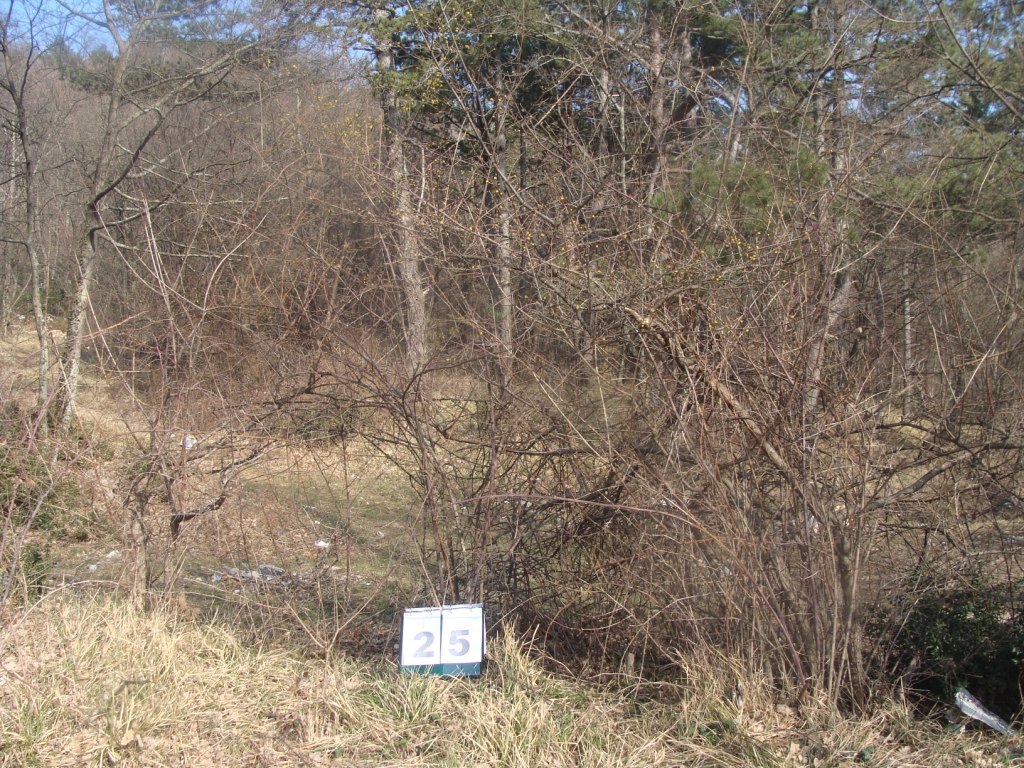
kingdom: Plantae
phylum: Tracheophyta
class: Magnoliopsida
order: Cornales
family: Cornaceae
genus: Cornus
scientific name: Cornus mas
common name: Cornelian-cherry
